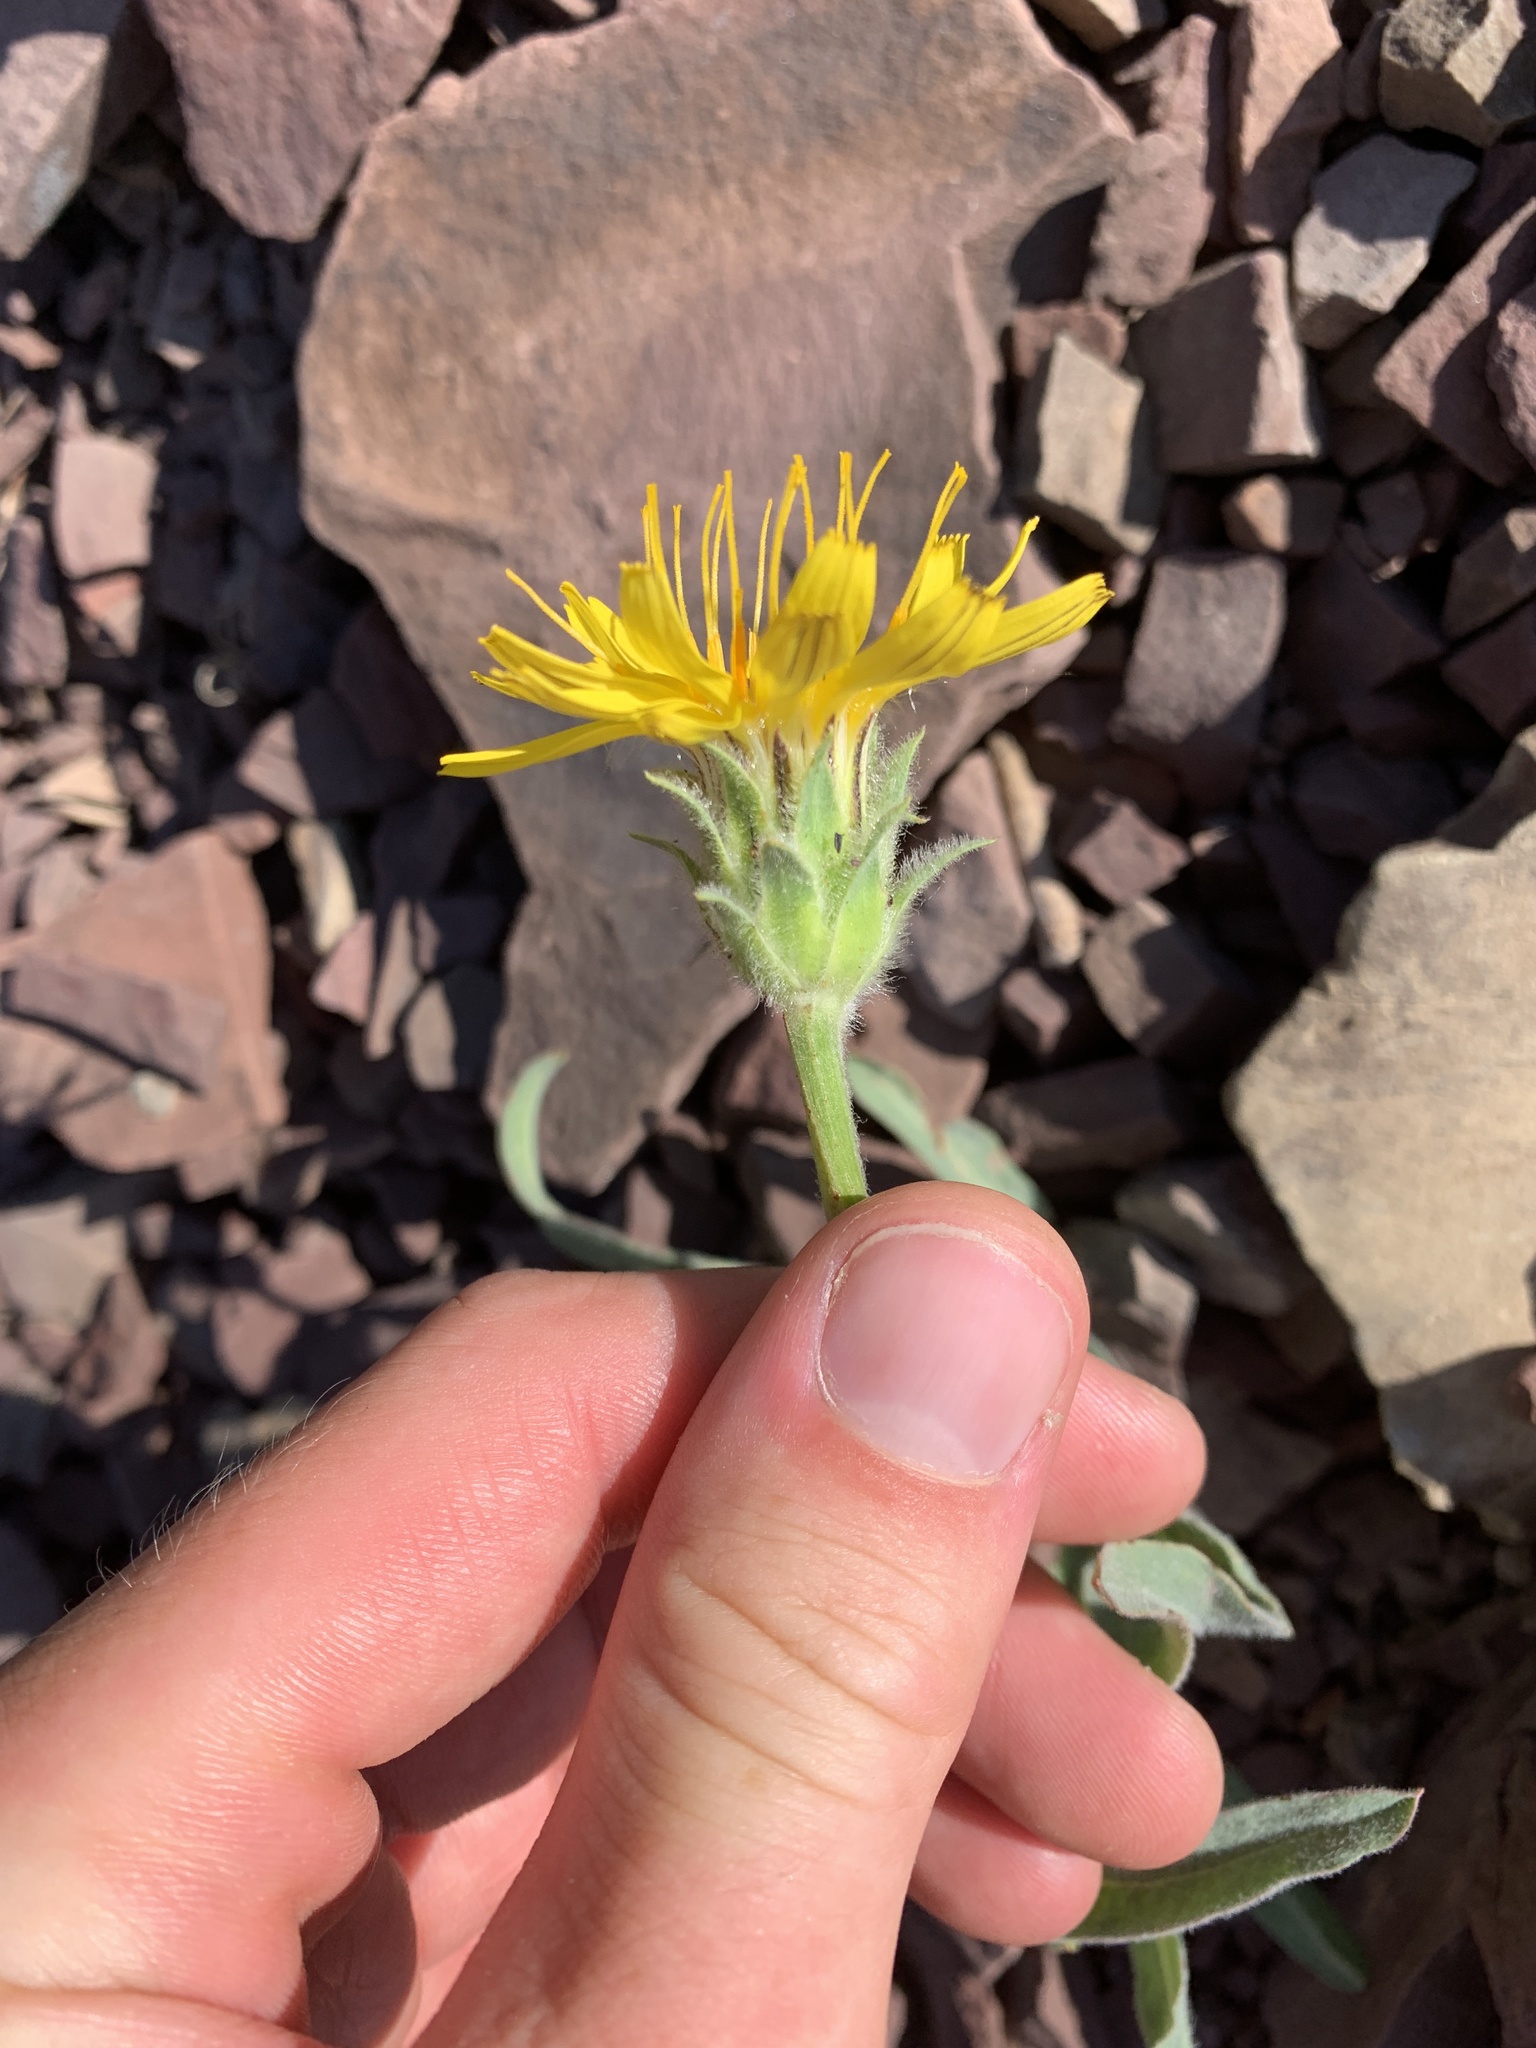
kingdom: Plantae
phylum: Tracheophyta
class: Magnoliopsida
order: Asterales
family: Asteraceae
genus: Agoseris
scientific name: Agoseris glauca
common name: Prairie agoseris
